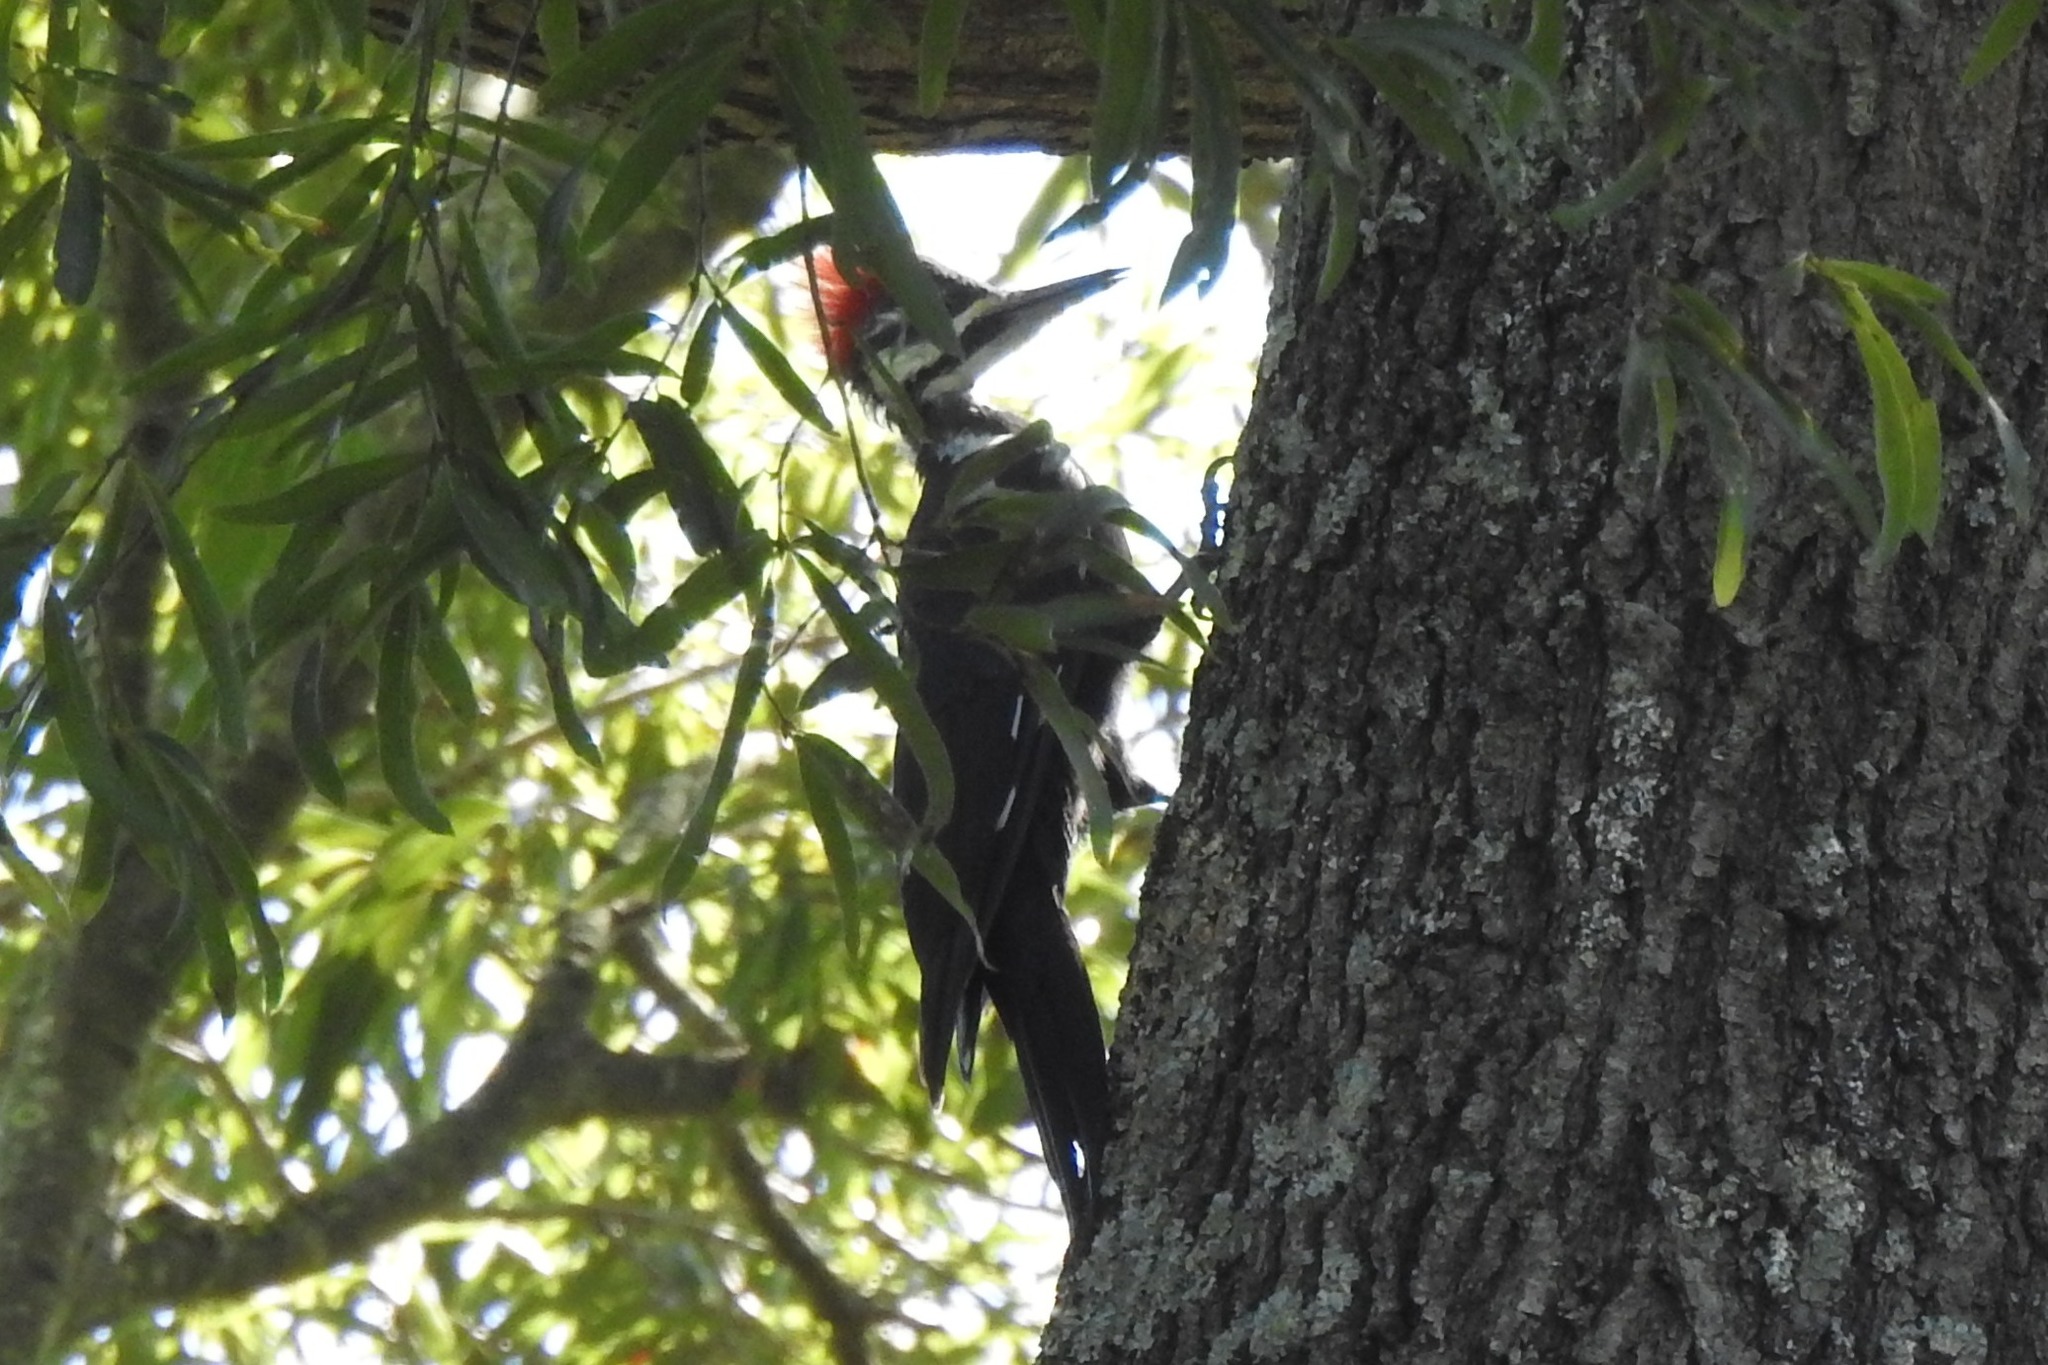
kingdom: Animalia
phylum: Chordata
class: Aves
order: Piciformes
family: Picidae
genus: Dryocopus
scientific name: Dryocopus pileatus
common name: Pileated woodpecker
